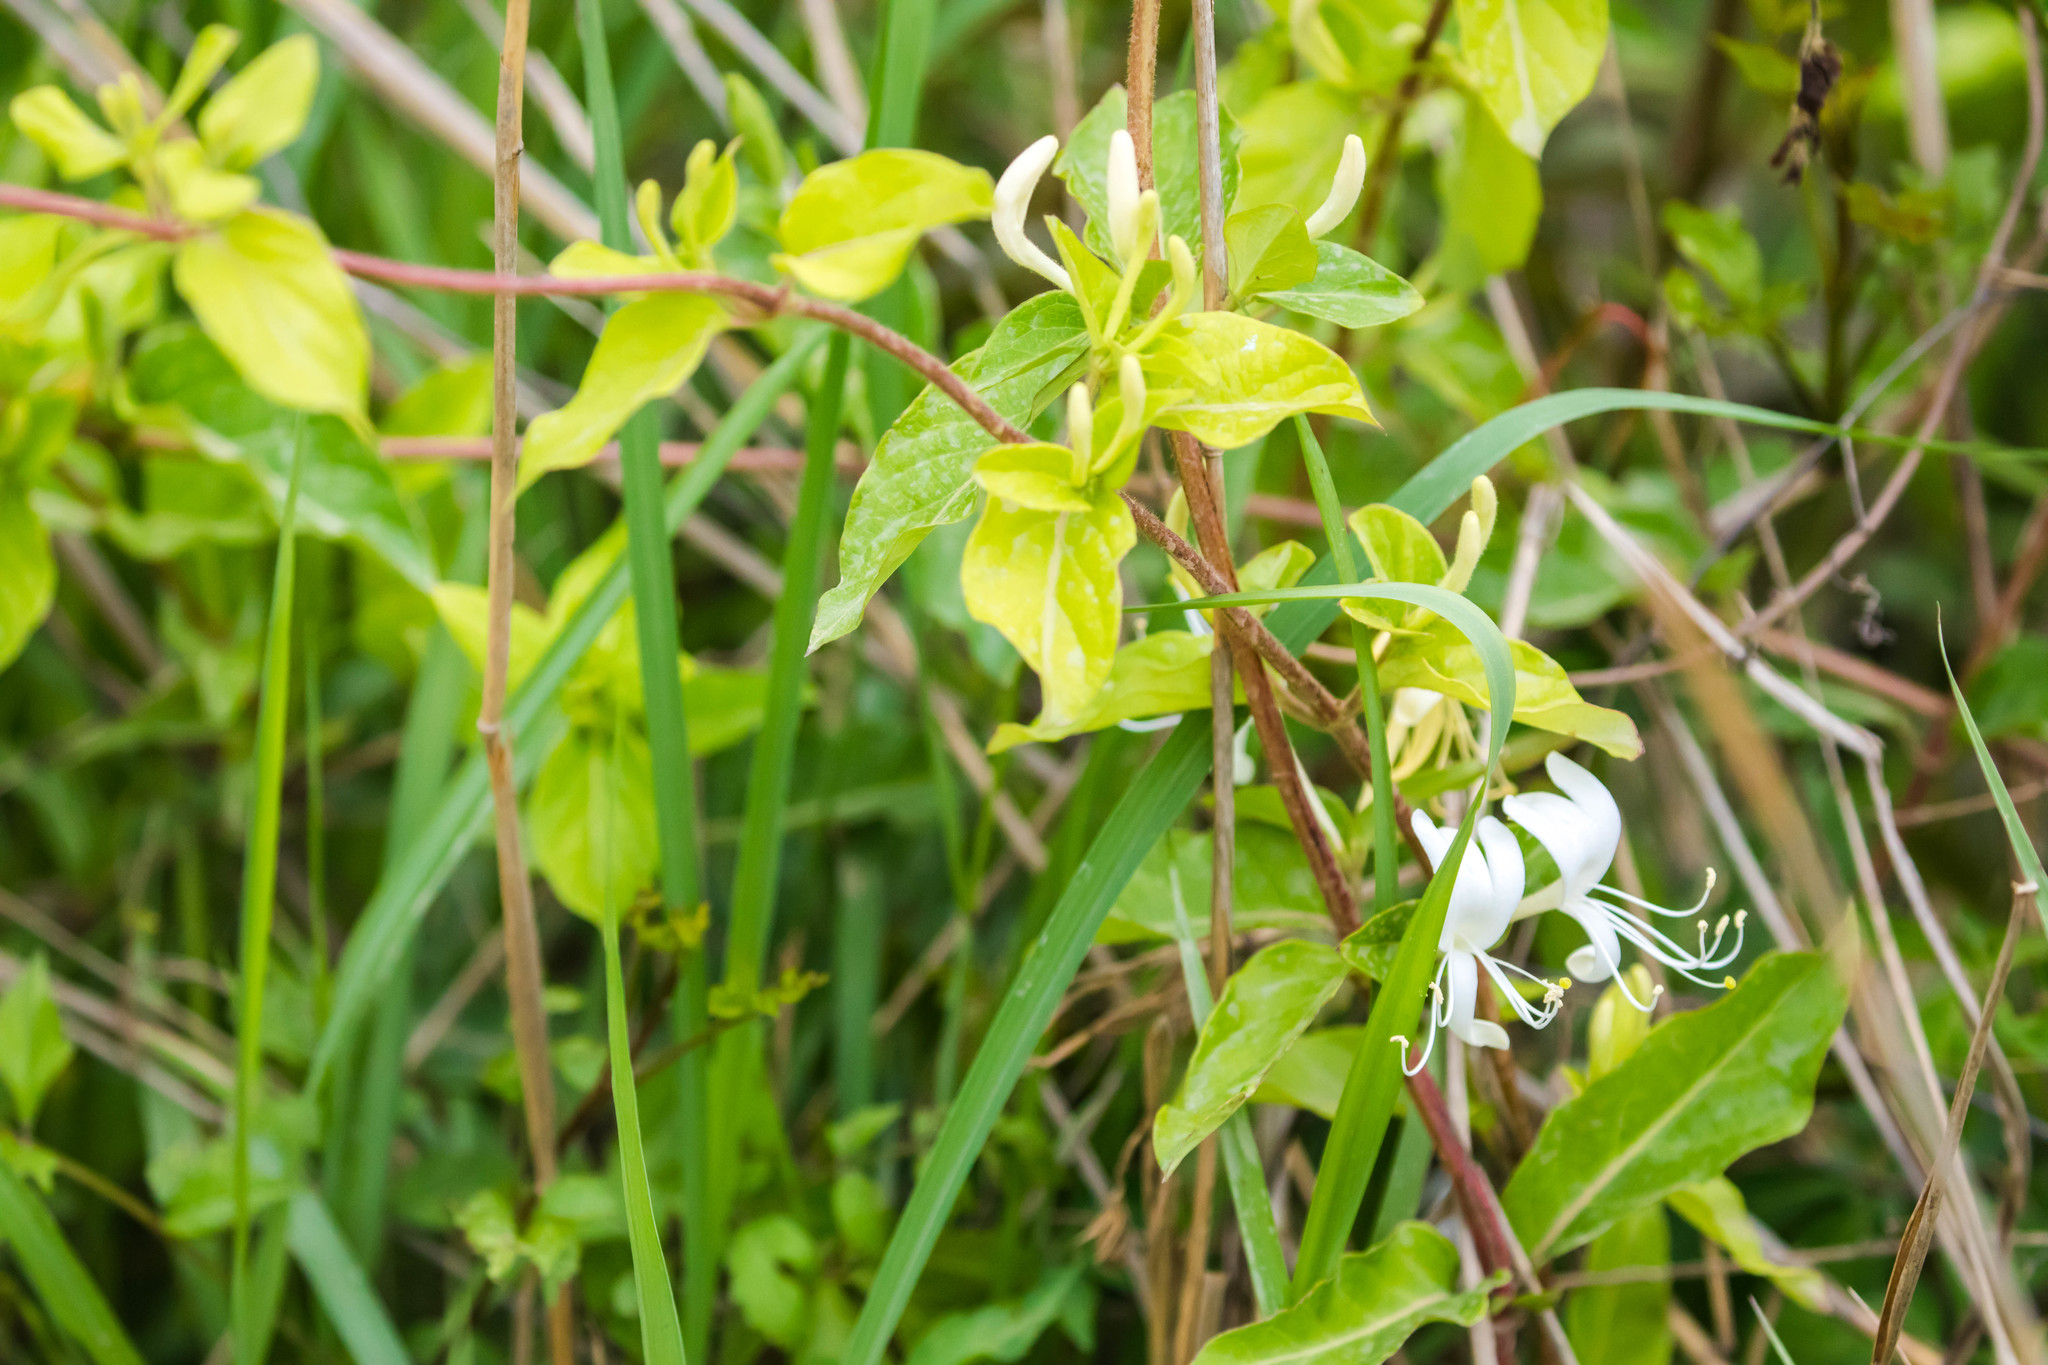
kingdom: Plantae
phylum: Tracheophyta
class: Magnoliopsida
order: Dipsacales
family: Caprifoliaceae
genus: Lonicera
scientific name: Lonicera japonica
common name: Japanese honeysuckle
